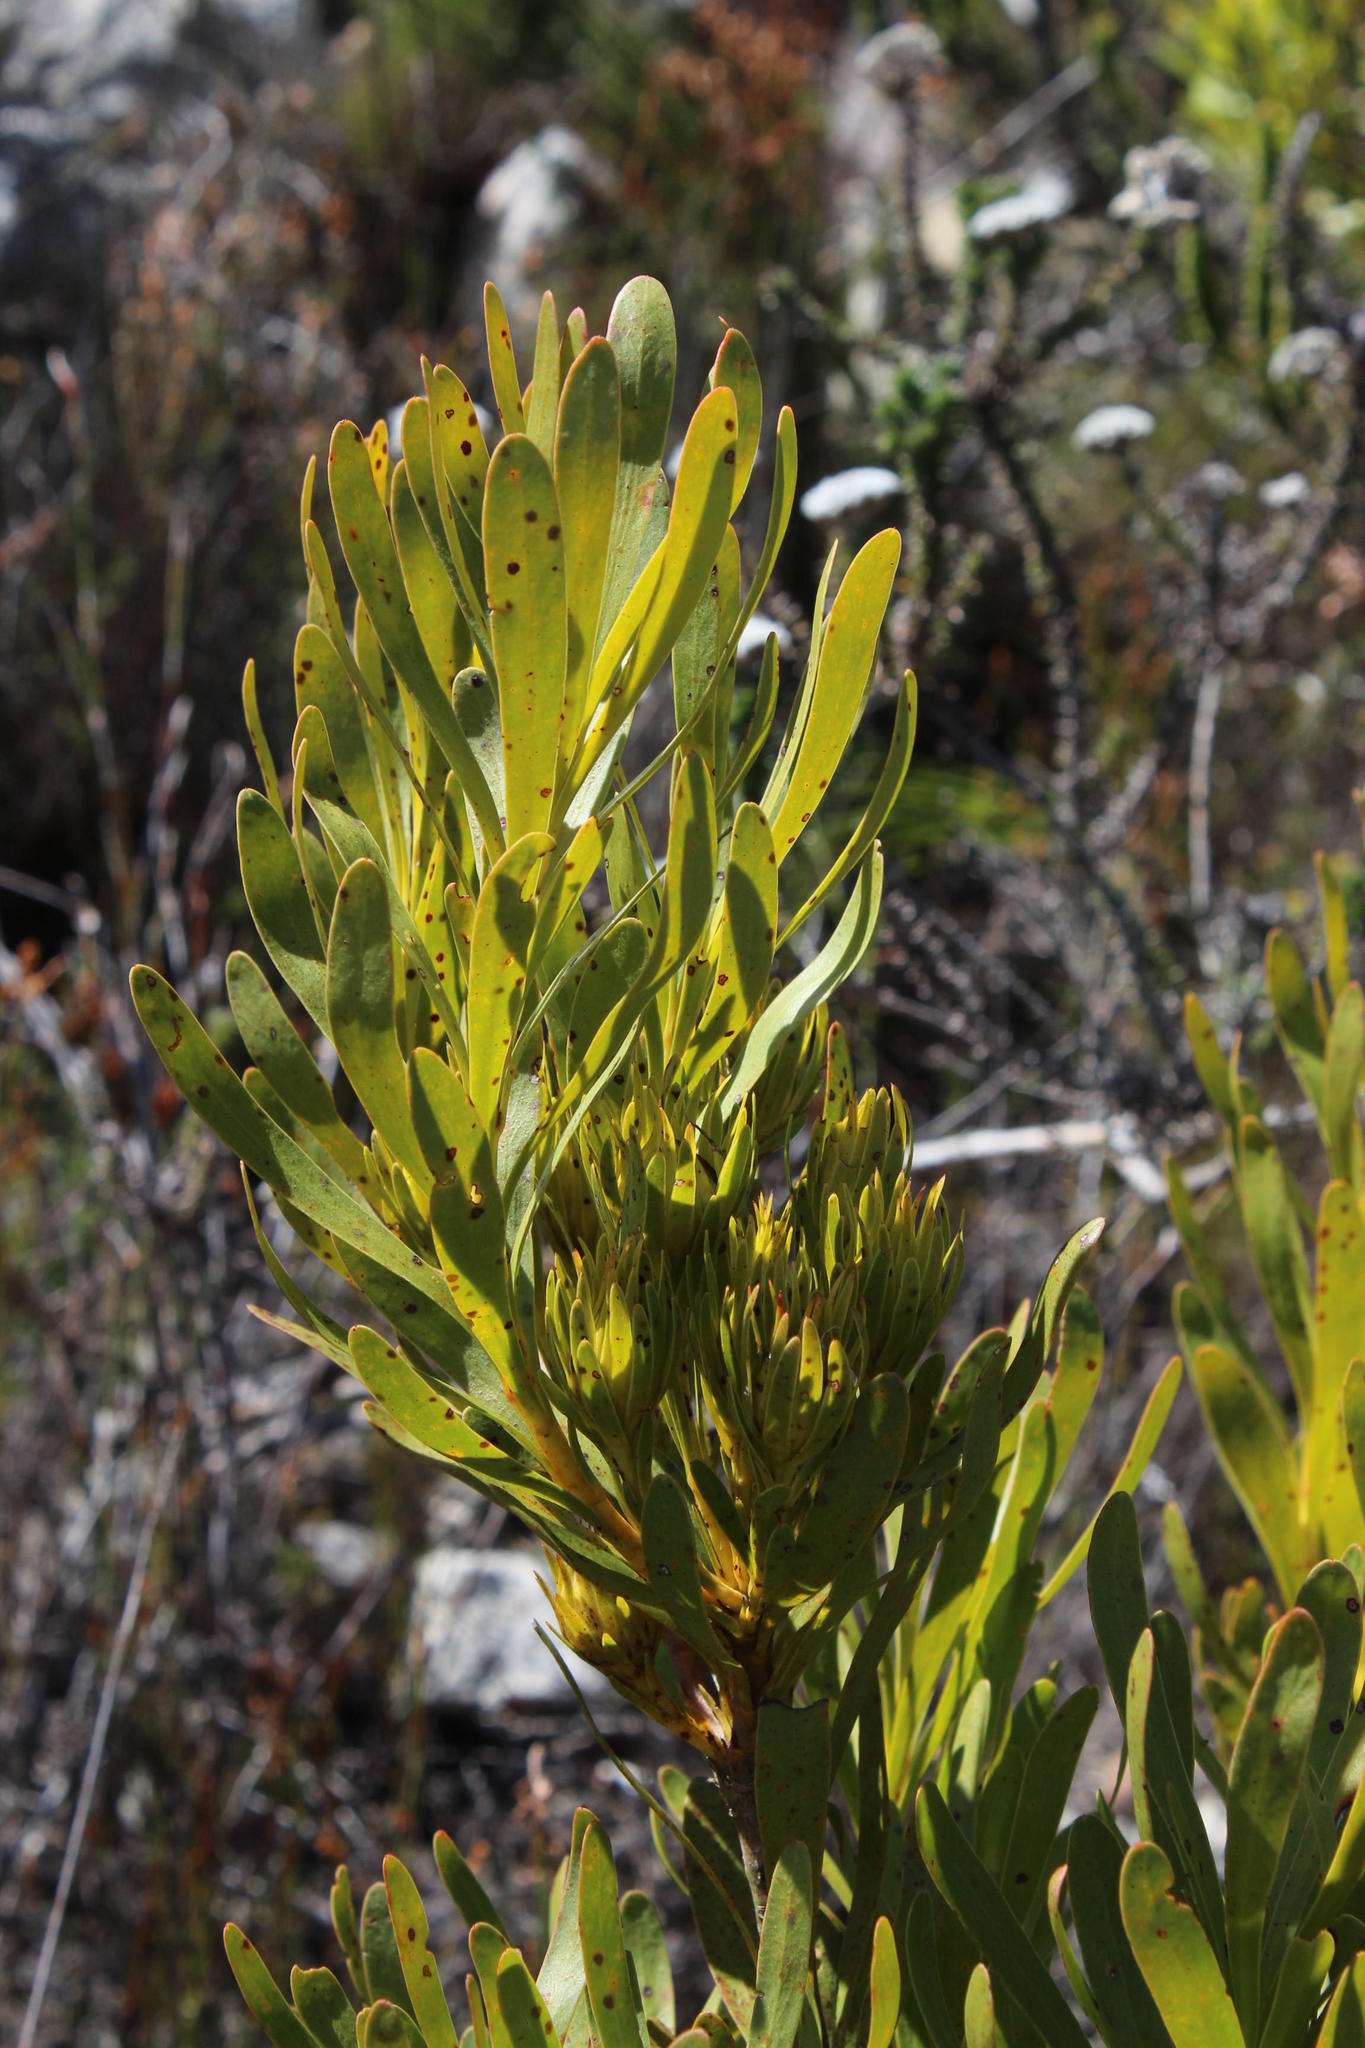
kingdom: Plantae
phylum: Tracheophyta
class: Magnoliopsida
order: Proteales
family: Proteaceae
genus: Aulax
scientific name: Aulax umbellata
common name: Broad-leaf featherbush
